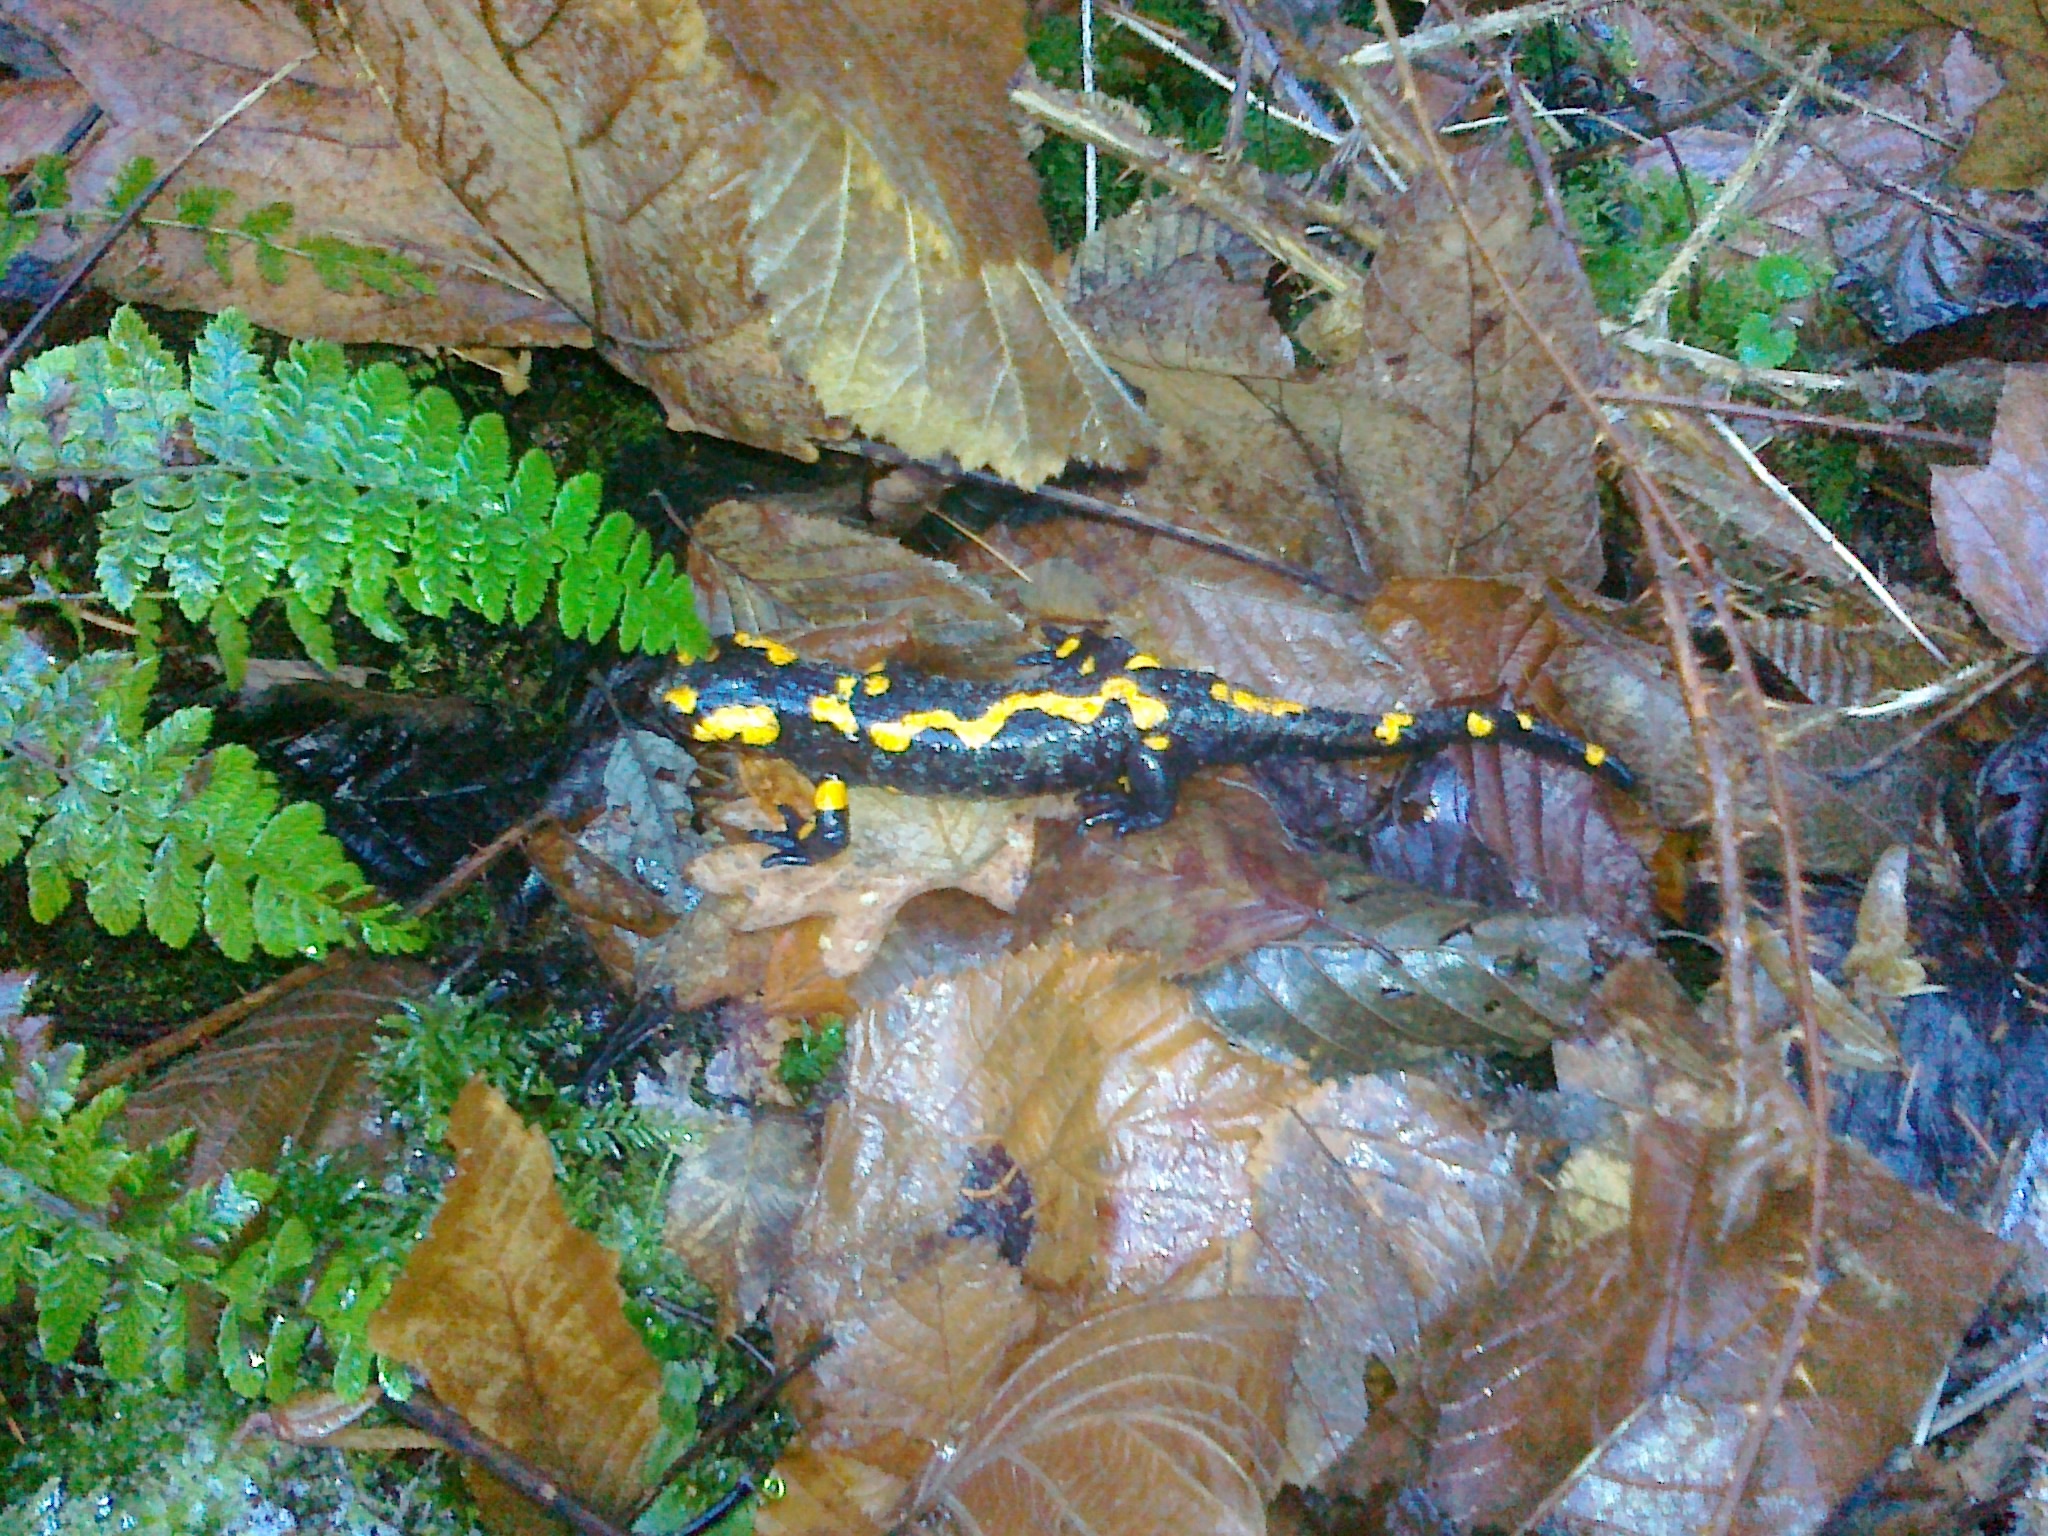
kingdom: Animalia
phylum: Chordata
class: Amphibia
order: Caudata
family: Salamandridae
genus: Salamandra
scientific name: Salamandra salamandra
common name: Fire salamander
